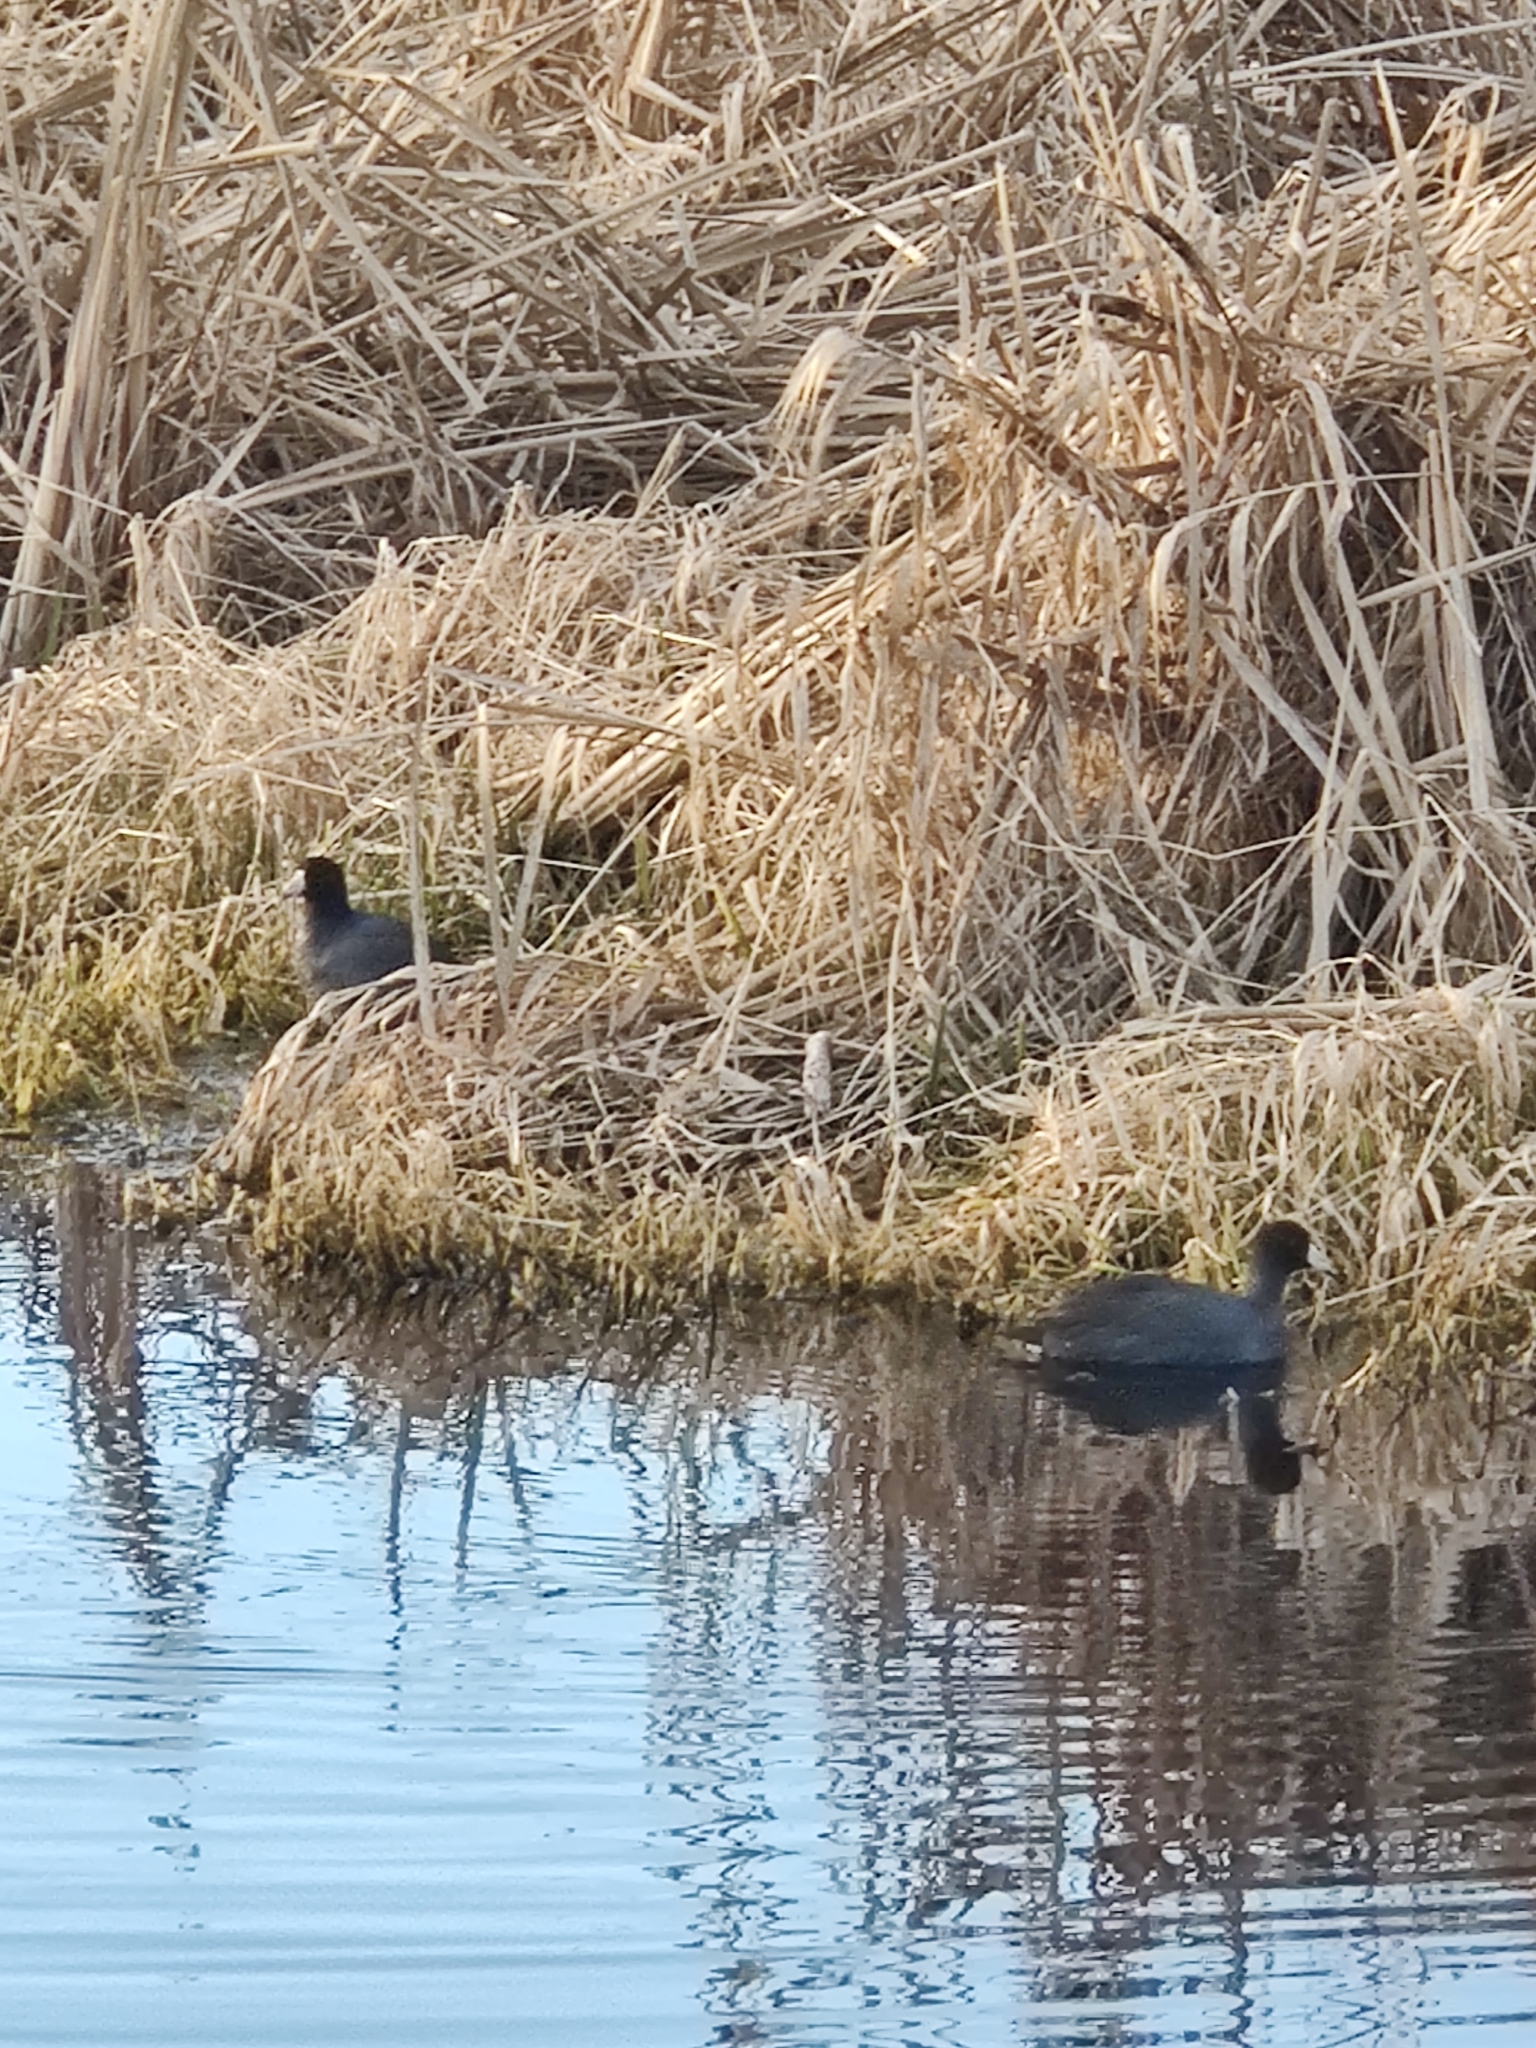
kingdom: Animalia
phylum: Chordata
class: Aves
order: Gruiformes
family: Rallidae
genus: Fulica
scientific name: Fulica americana
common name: American coot
